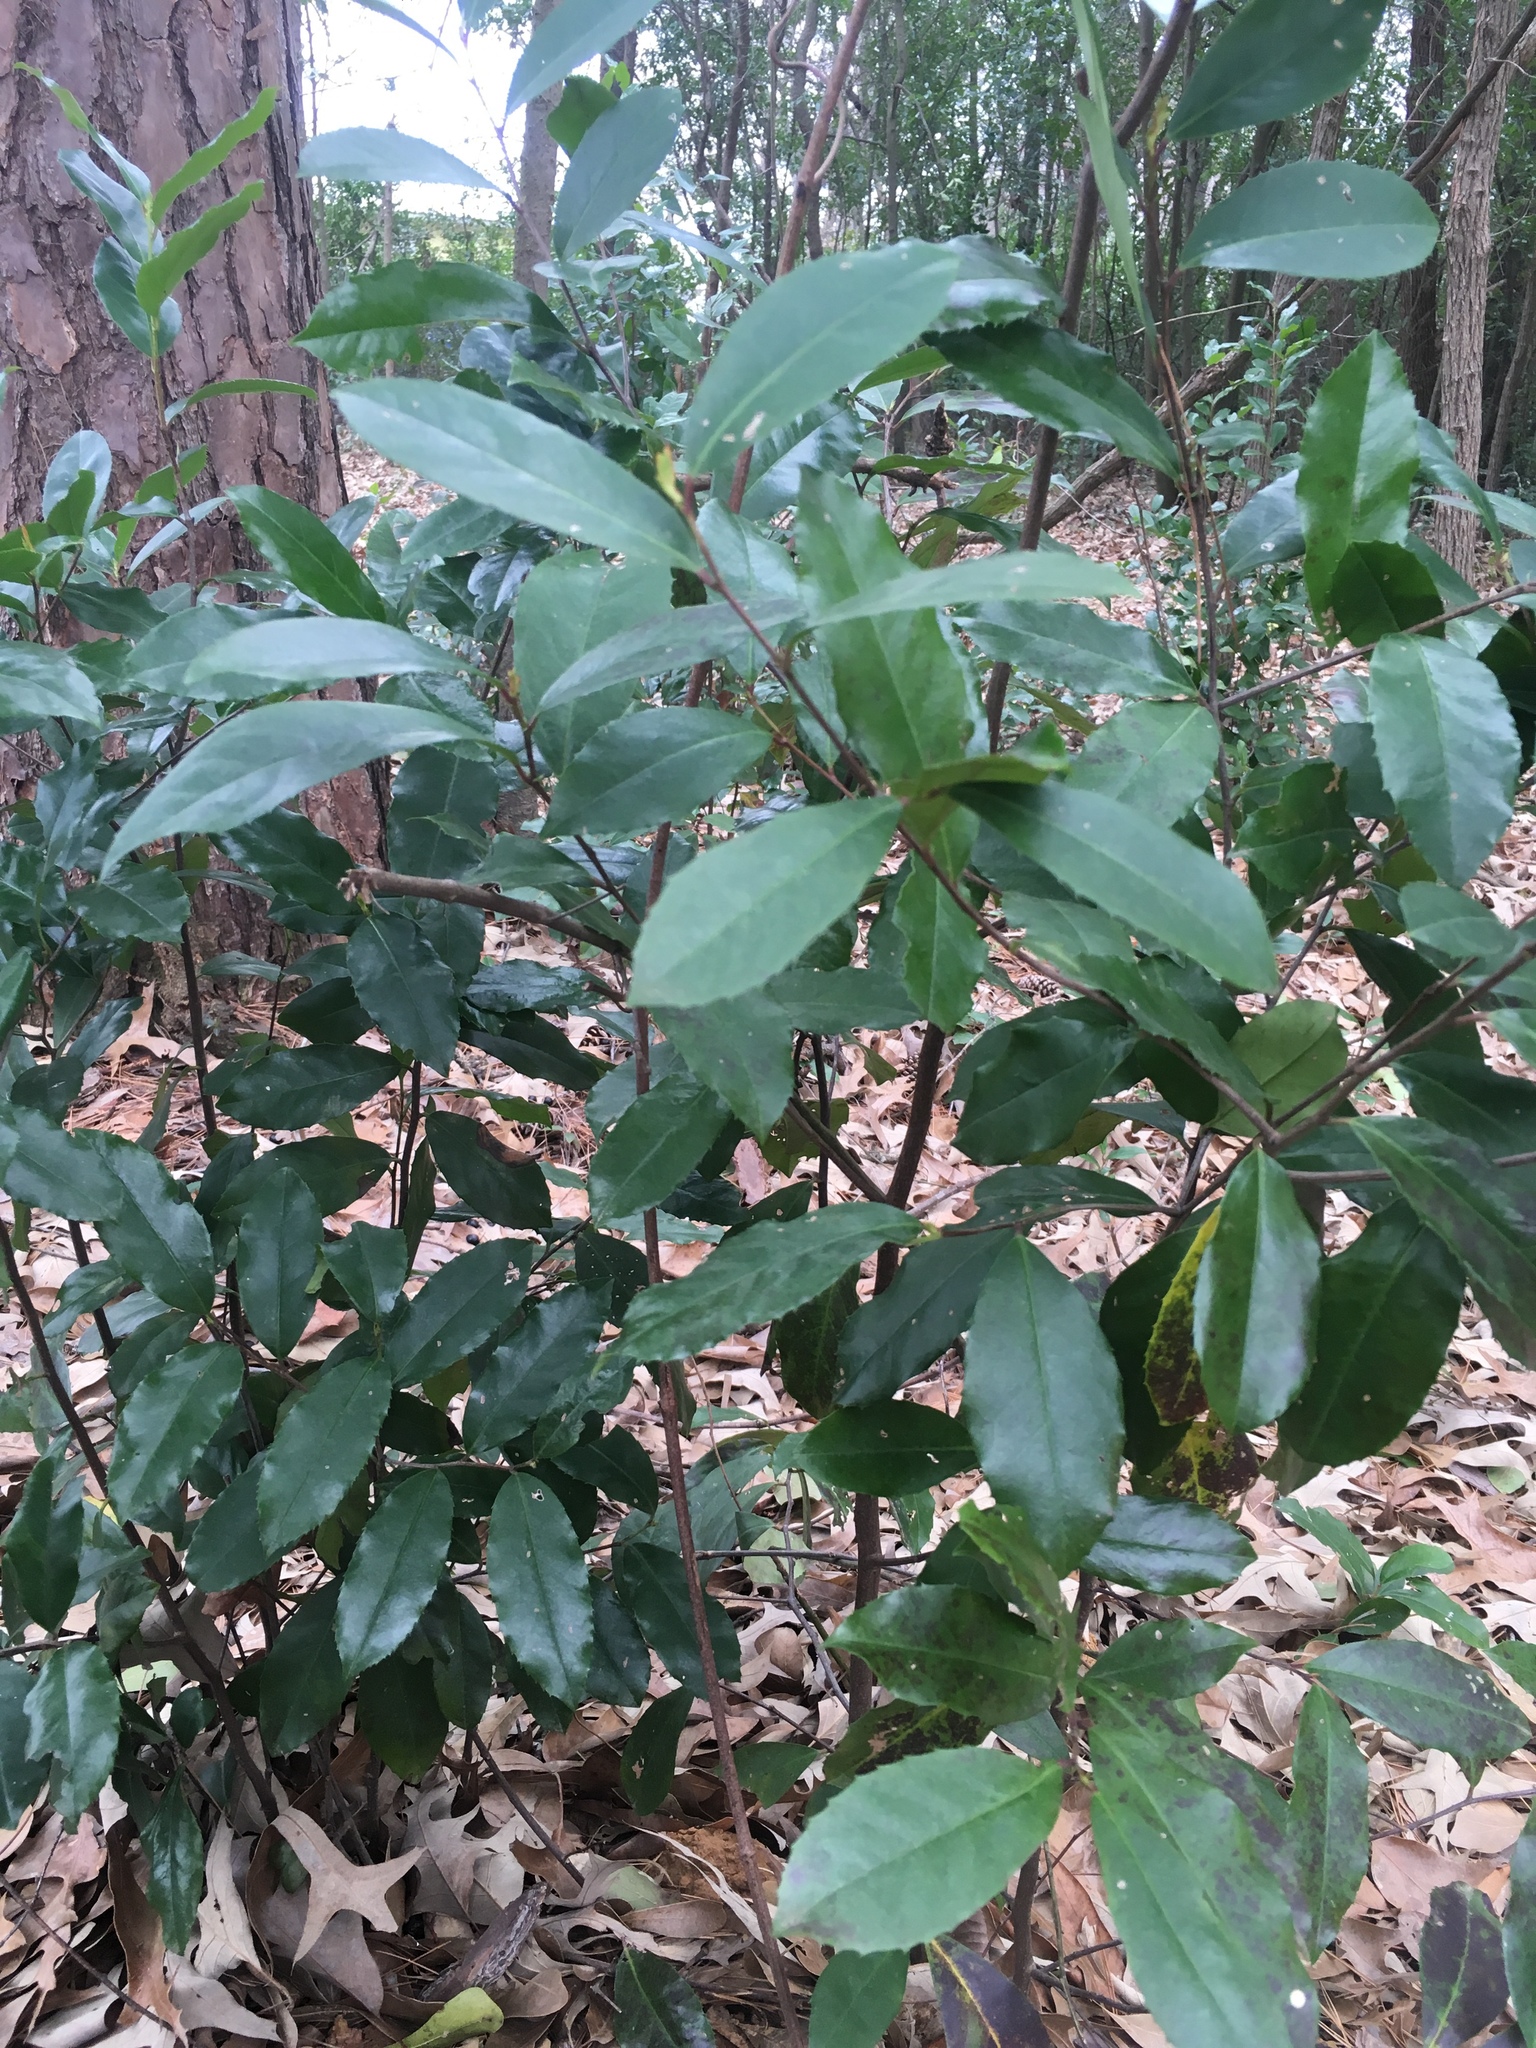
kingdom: Plantae
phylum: Tracheophyta
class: Magnoliopsida
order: Rosales
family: Rosaceae
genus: Prunus
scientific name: Prunus caroliniana
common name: Carolina laurel cherry
